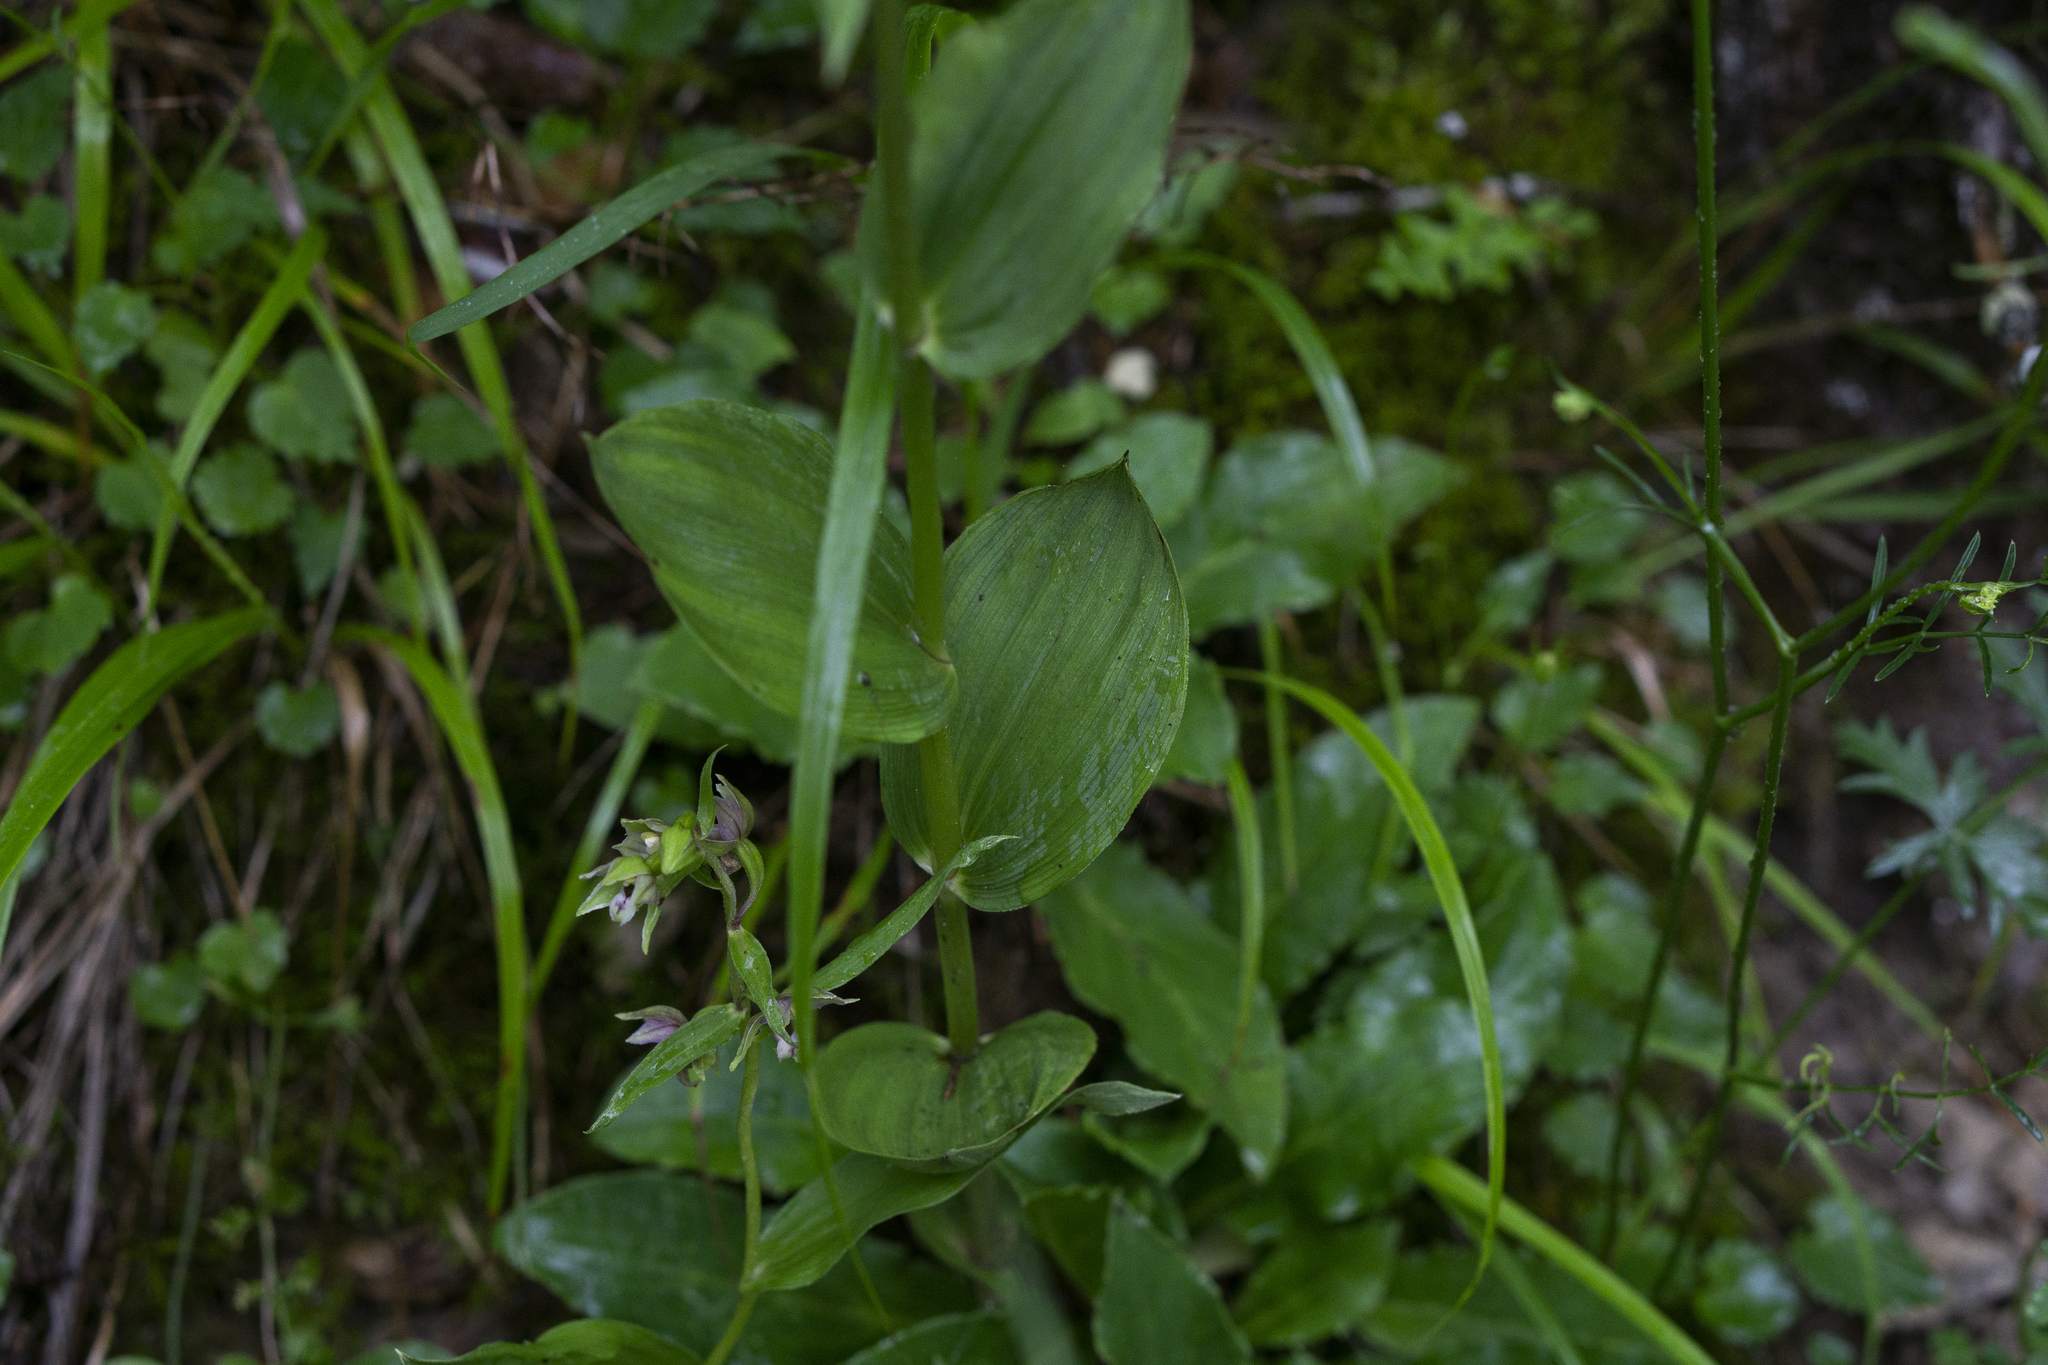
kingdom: Plantae
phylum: Tracheophyta
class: Liliopsida
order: Asparagales
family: Orchidaceae
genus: Epipactis
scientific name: Epipactis helleborine
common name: Broad-leaved helleborine
